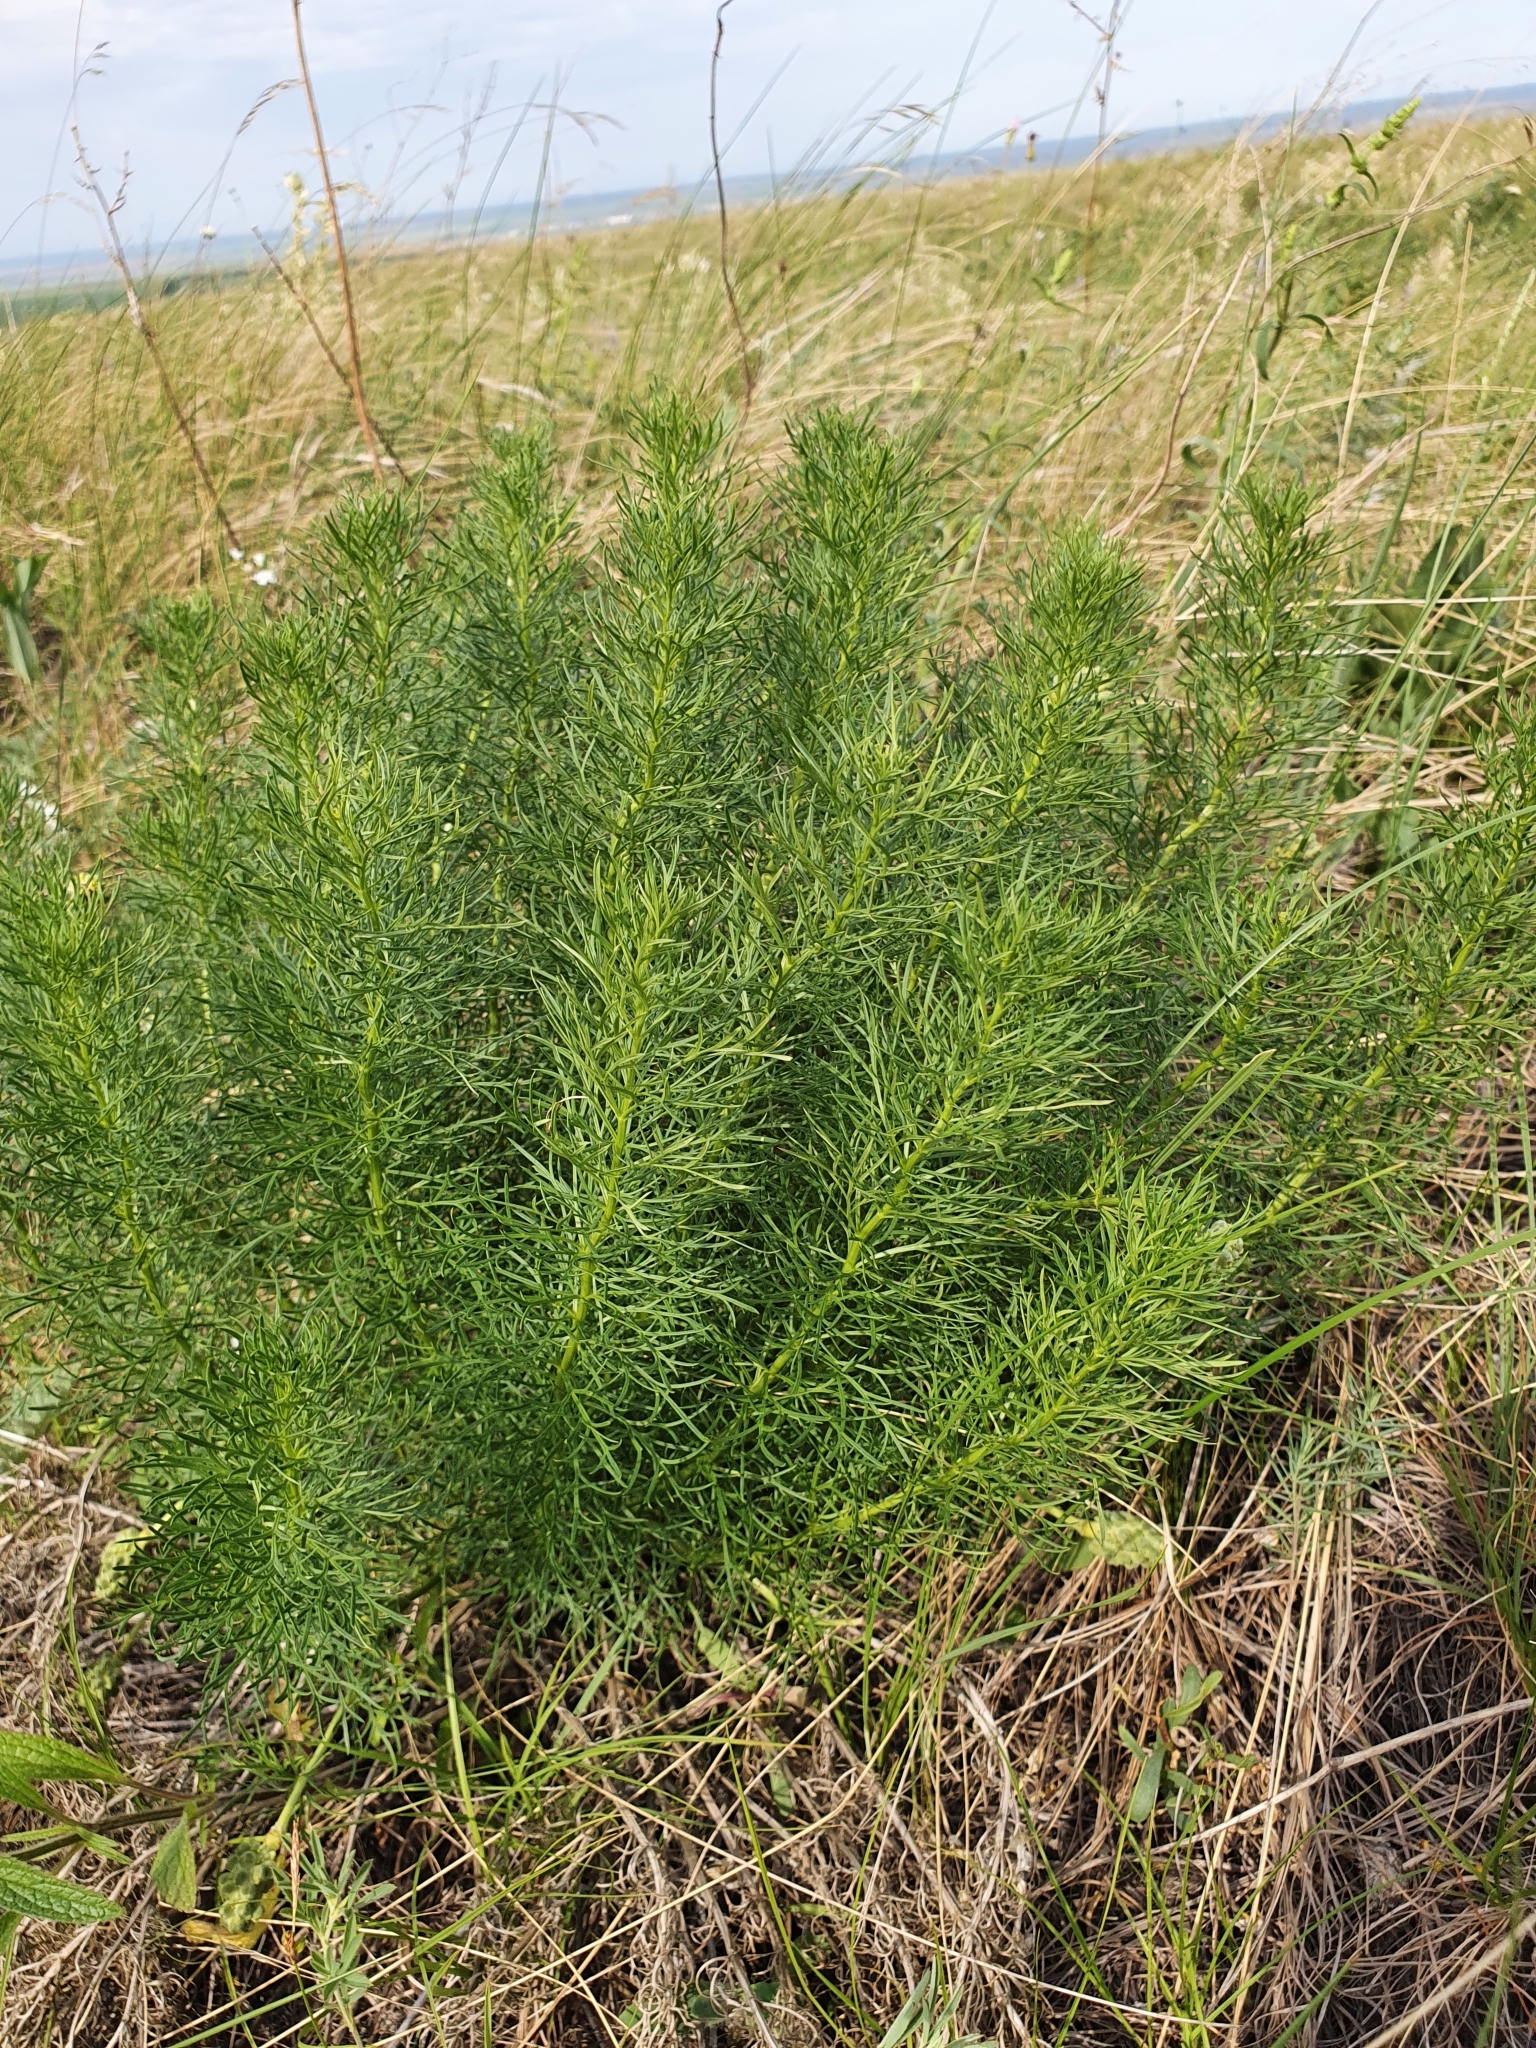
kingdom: Plantae
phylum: Tracheophyta
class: Magnoliopsida
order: Ranunculales
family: Ranunculaceae
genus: Adonis
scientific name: Adonis vernalis
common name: Yellow pheasants-eye
